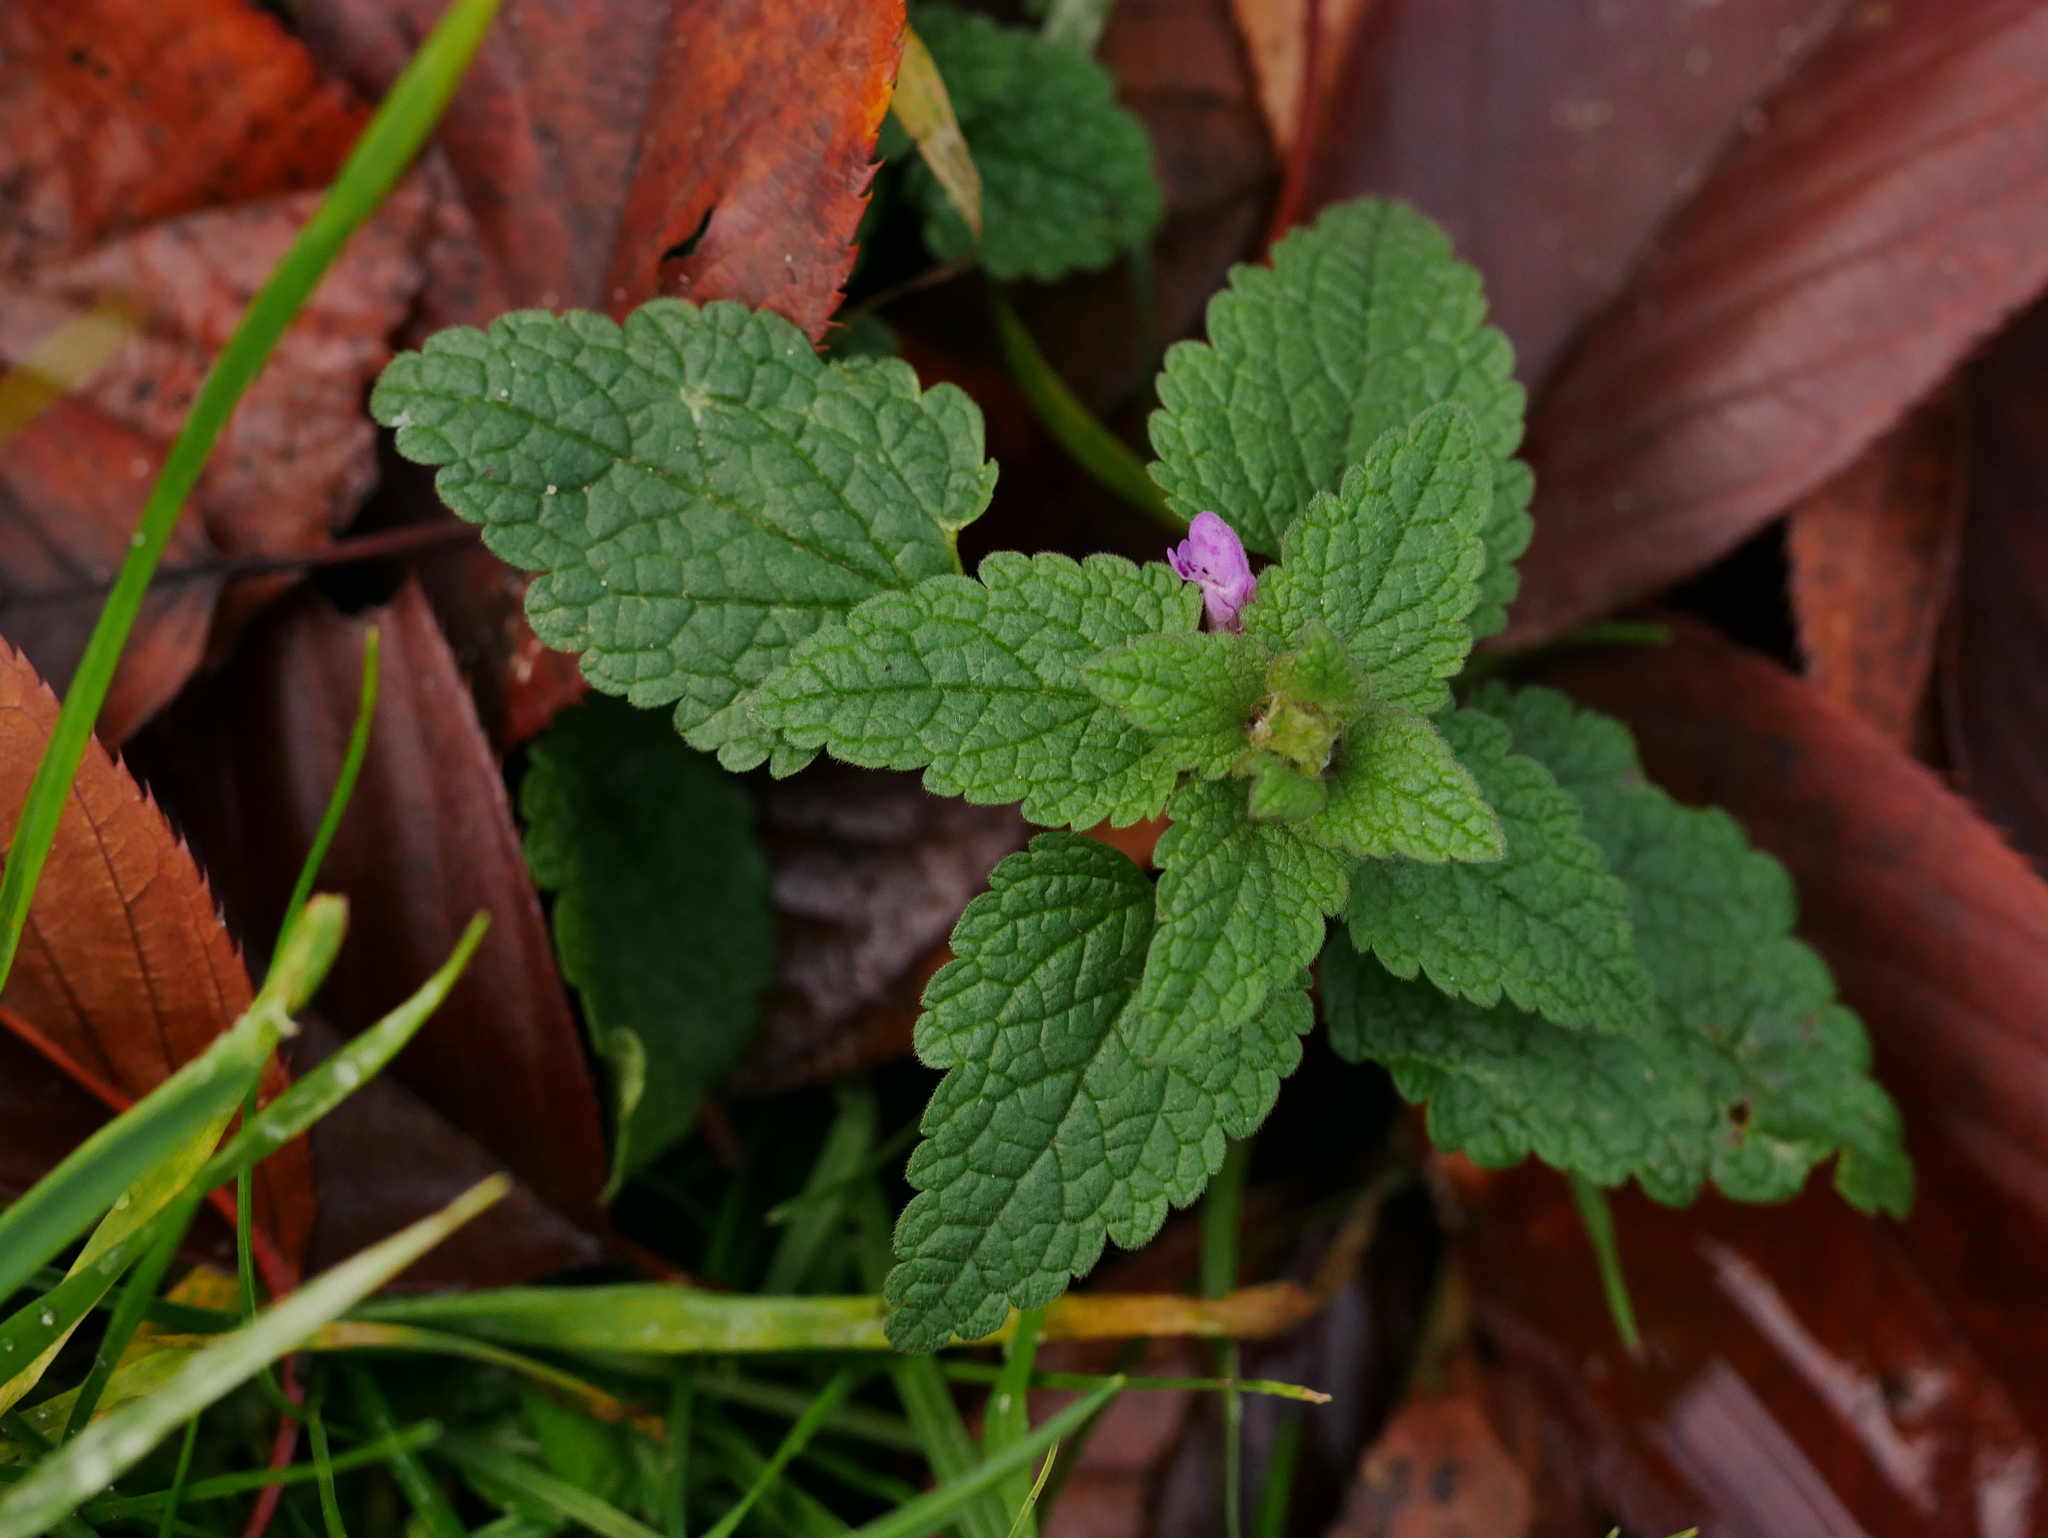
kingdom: Plantae
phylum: Tracheophyta
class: Magnoliopsida
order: Lamiales
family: Lamiaceae
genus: Lamium
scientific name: Lamium purpureum
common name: Red dead-nettle
